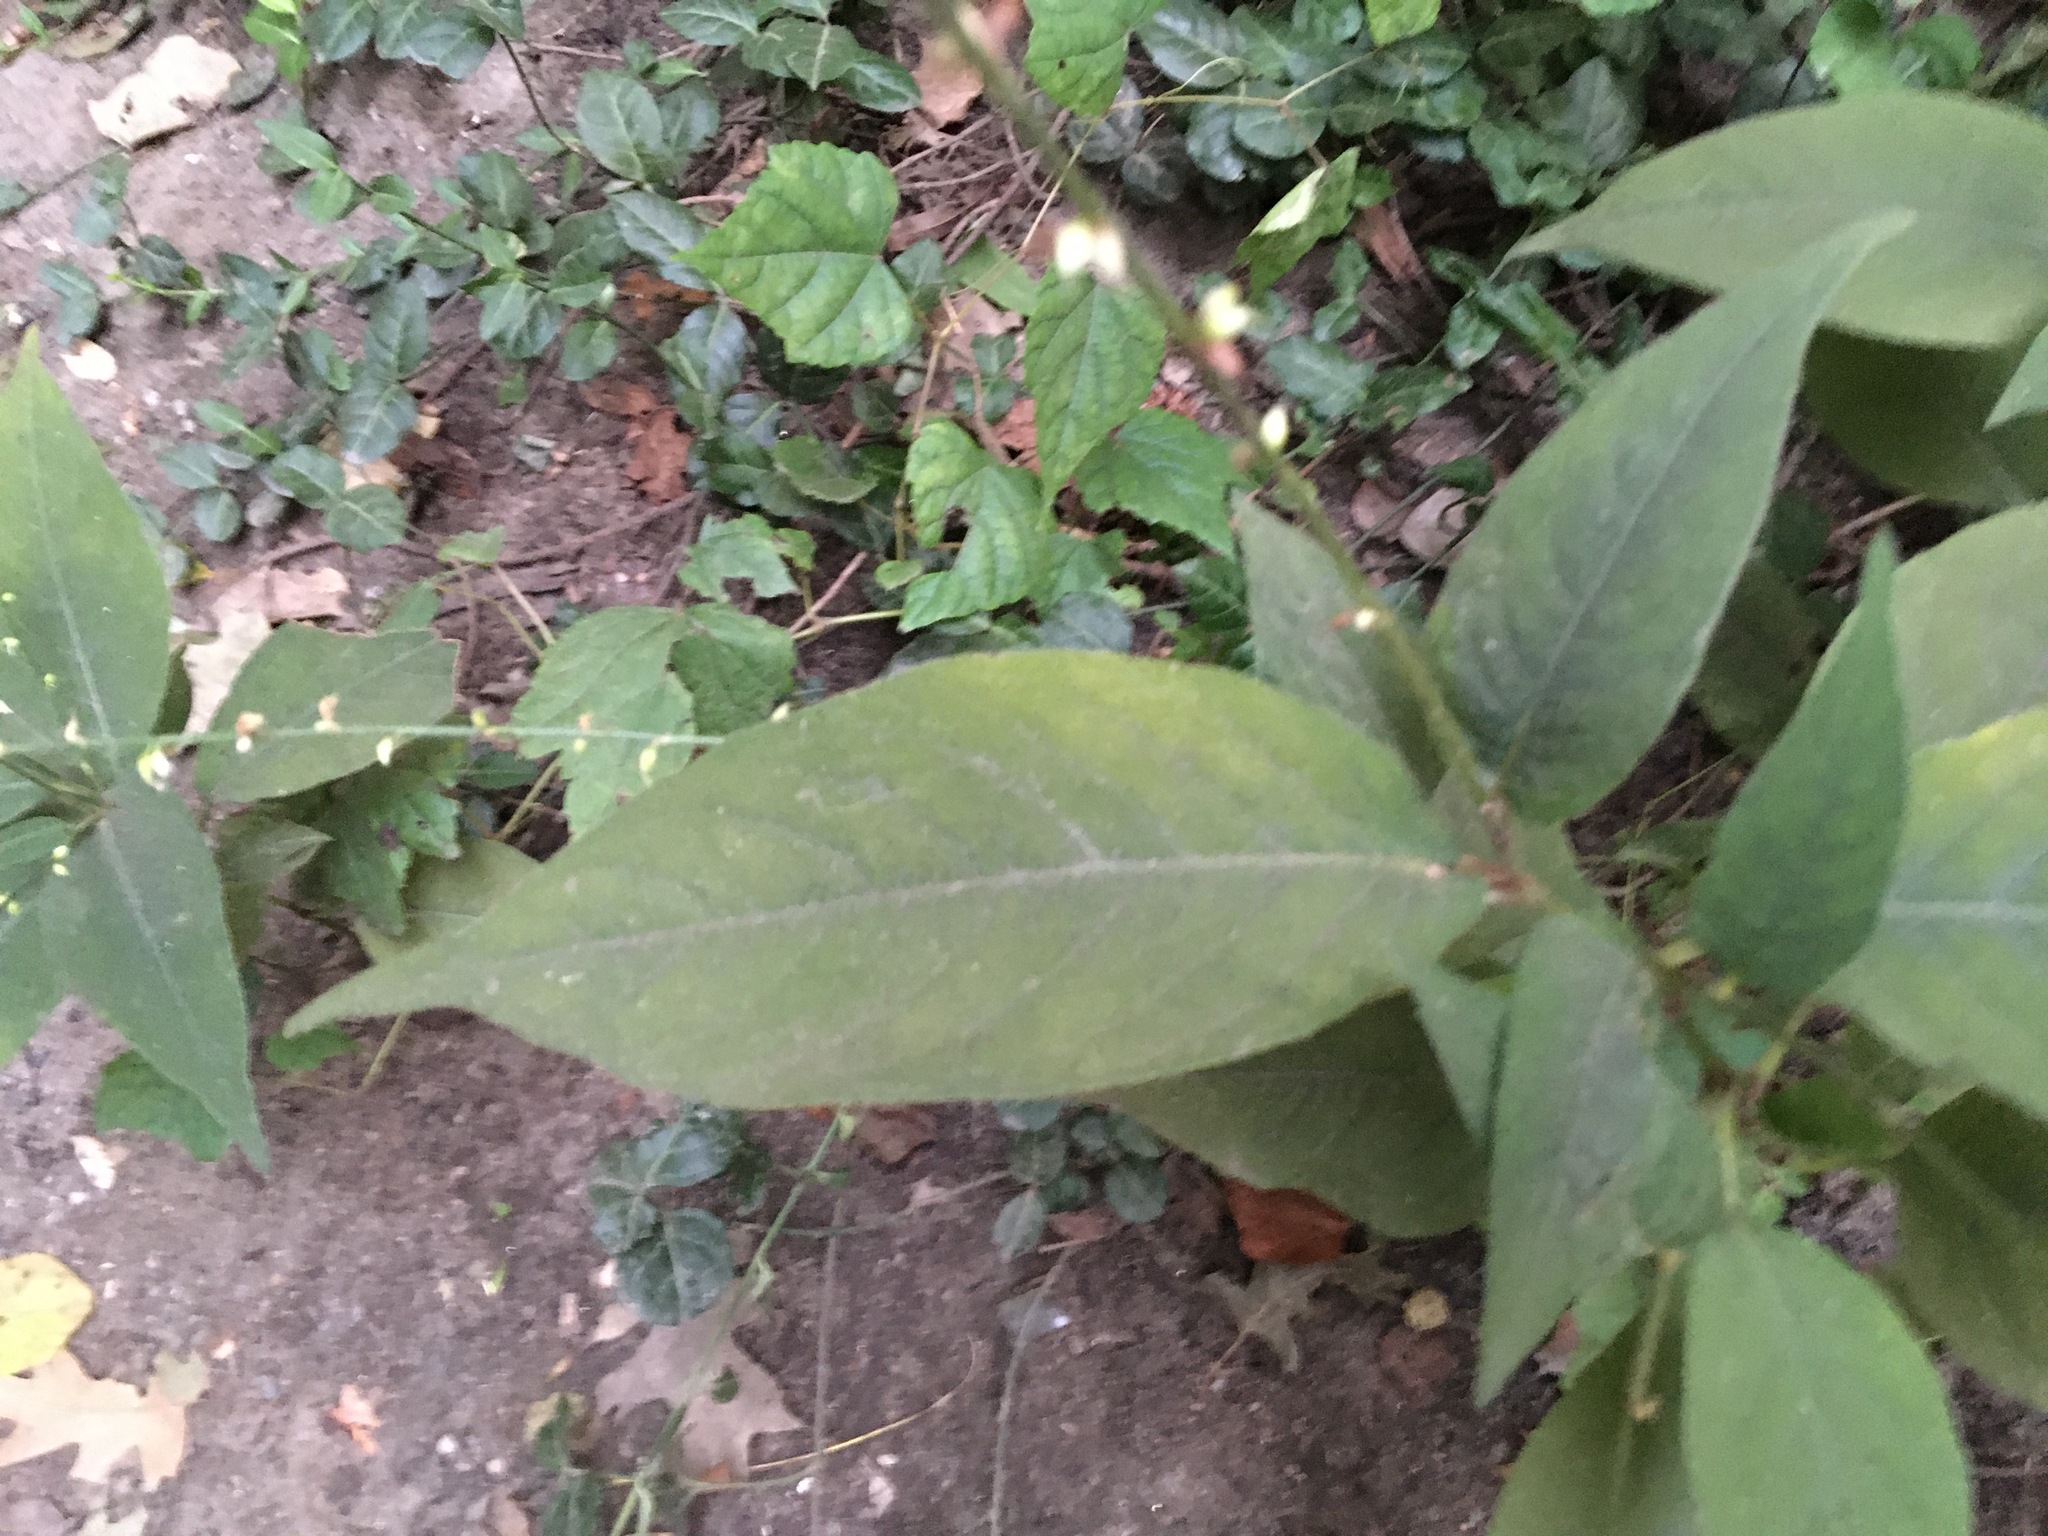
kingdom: Plantae
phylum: Tracheophyta
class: Magnoliopsida
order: Caryophyllales
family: Polygonaceae
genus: Persicaria
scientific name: Persicaria virginiana
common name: Jumpseed
